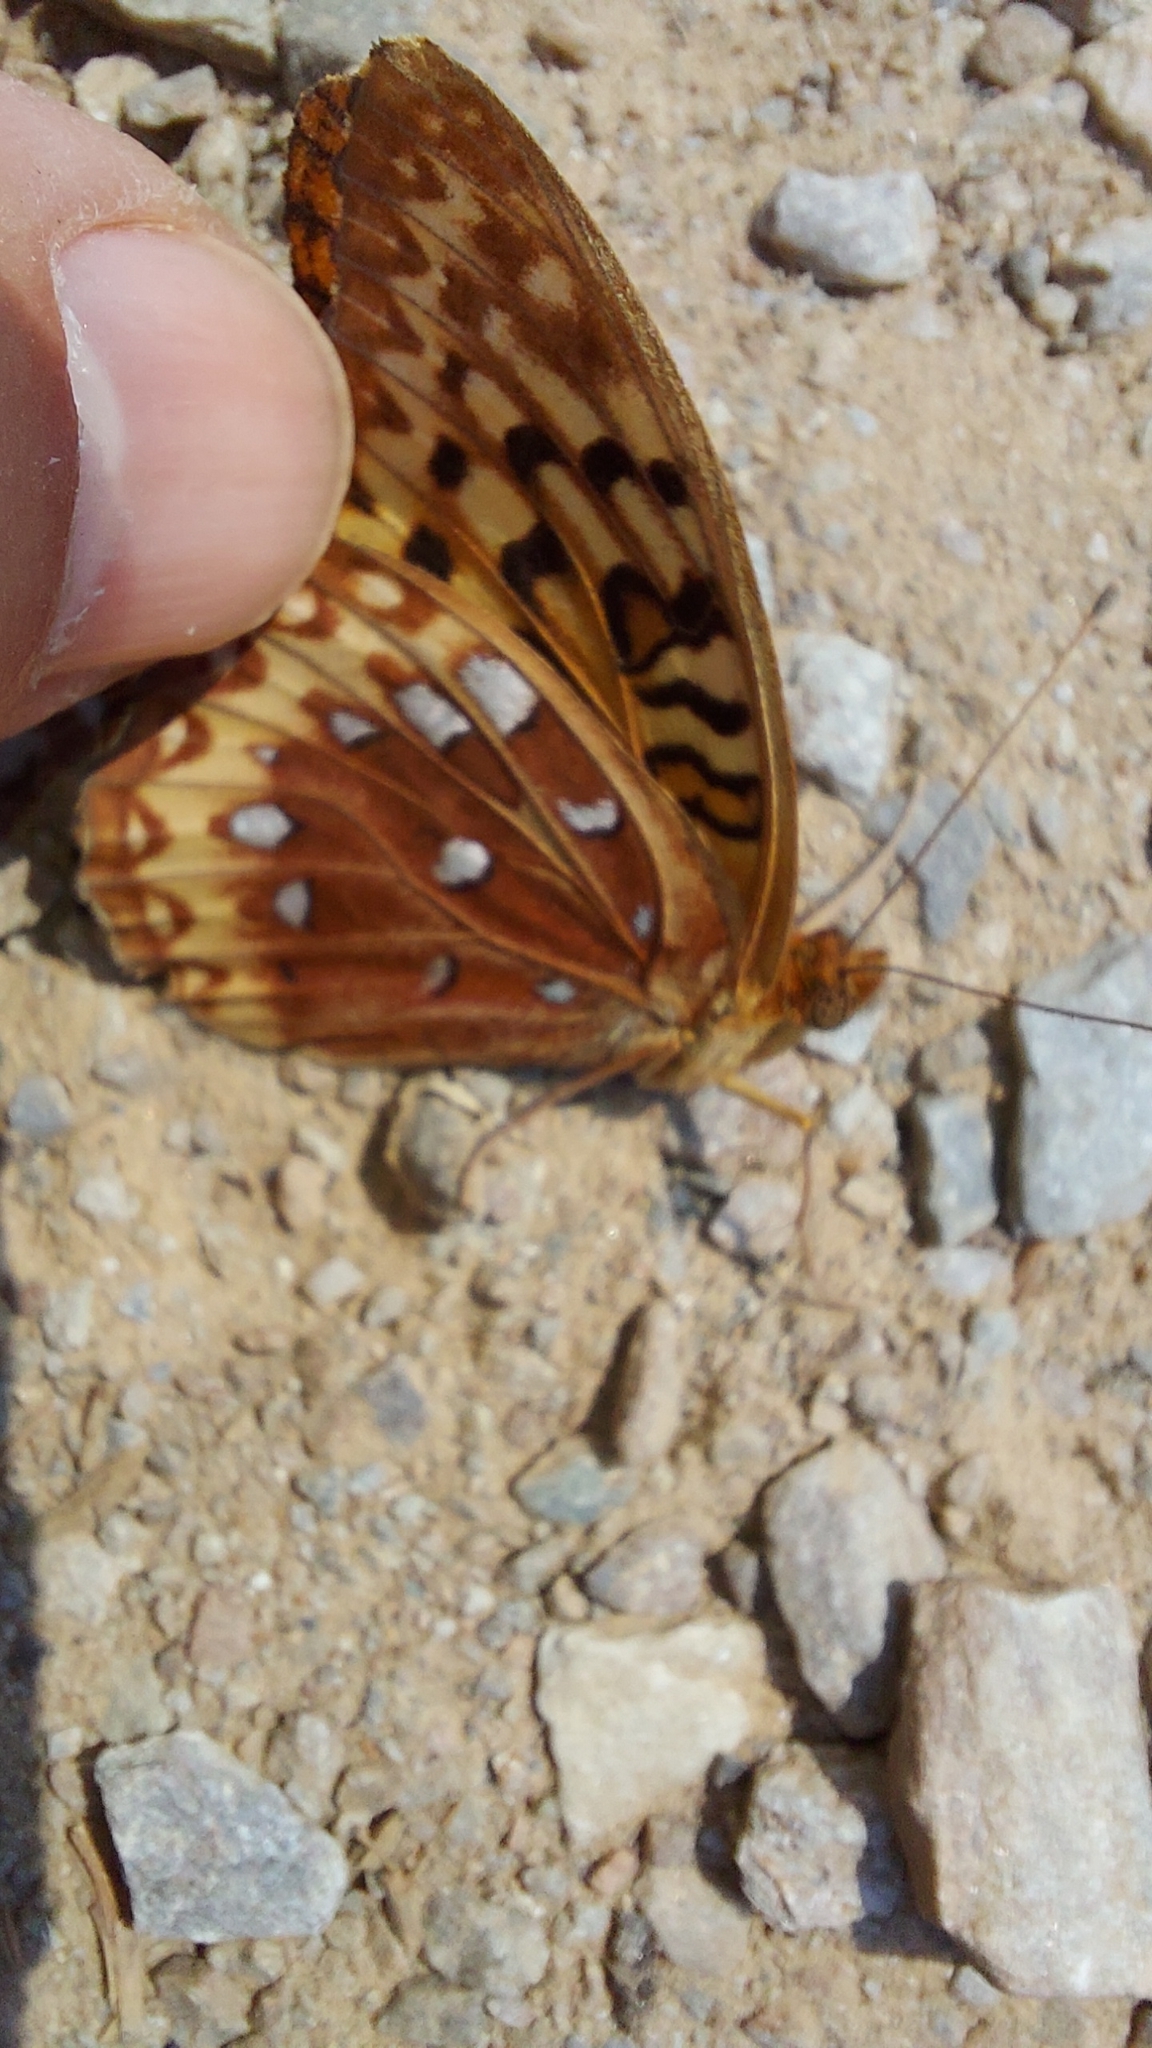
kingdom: Animalia
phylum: Arthropoda
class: Insecta
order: Lepidoptera
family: Nymphalidae
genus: Speyeria
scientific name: Speyeria cybele
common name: Great spangled fritillary
